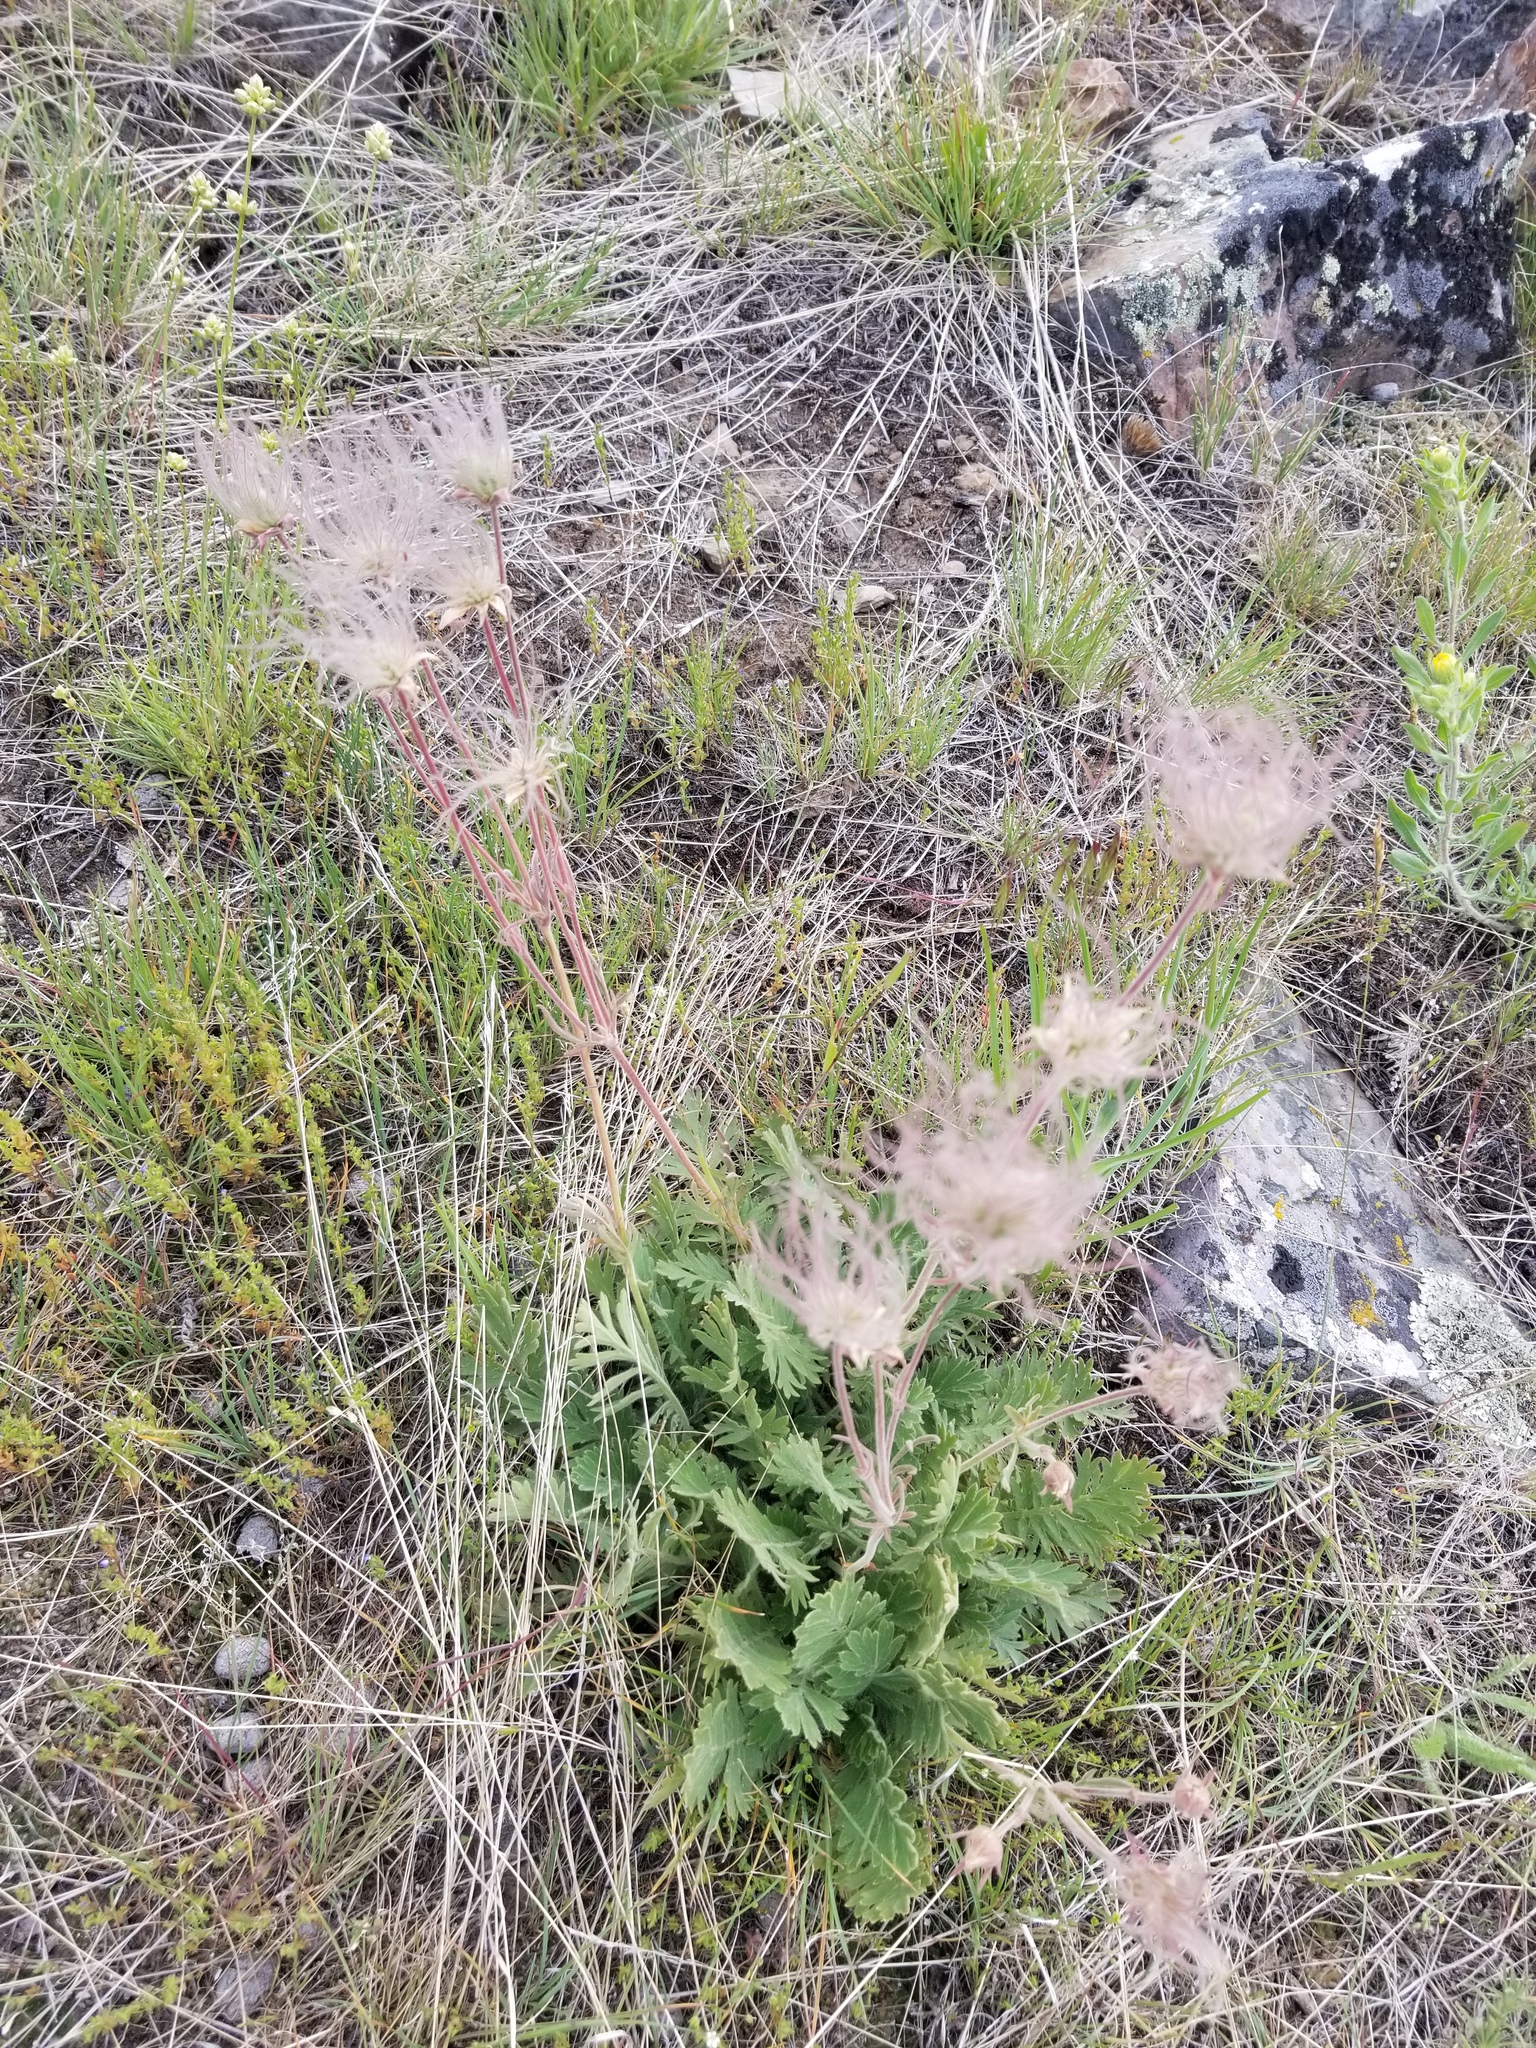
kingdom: Plantae
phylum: Tracheophyta
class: Magnoliopsida
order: Rosales
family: Rosaceae
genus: Geum
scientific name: Geum triflorum
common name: Old man's whiskers
